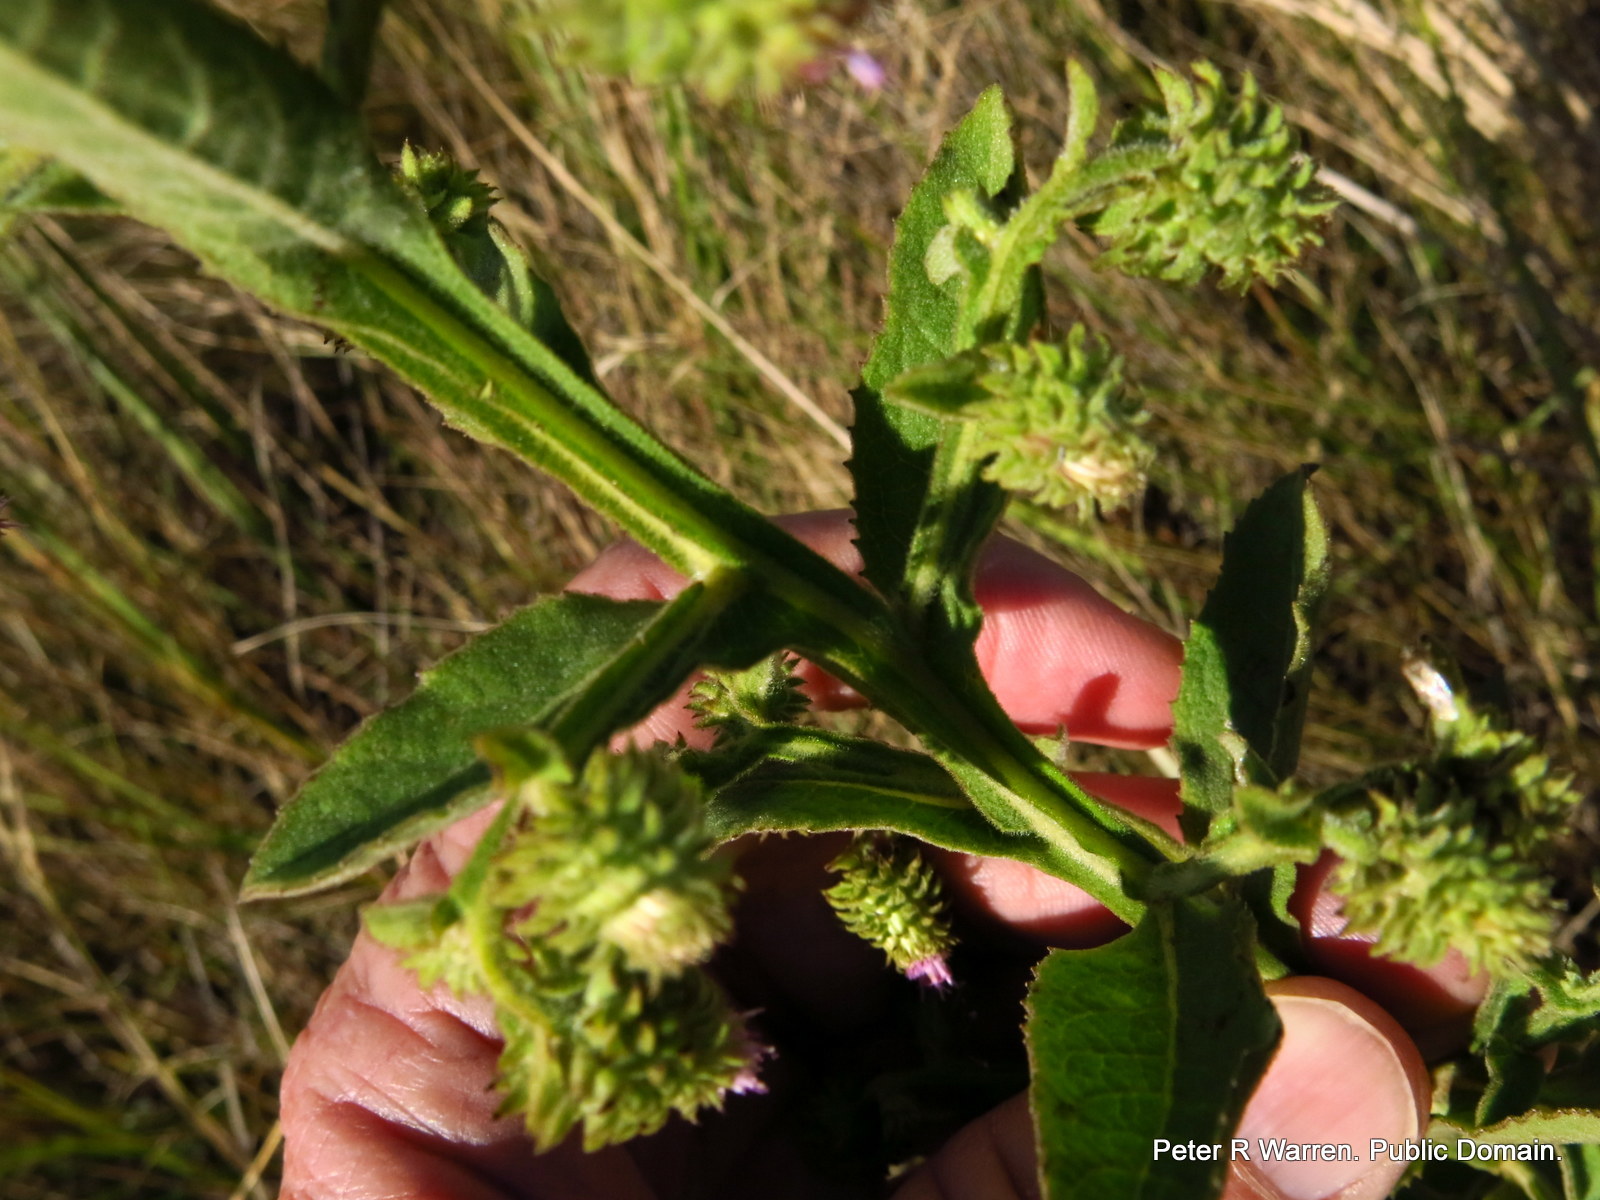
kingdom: Plantae
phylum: Tracheophyta
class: Magnoliopsida
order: Asterales
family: Asteraceae
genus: Laggera
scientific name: Laggera crispata
